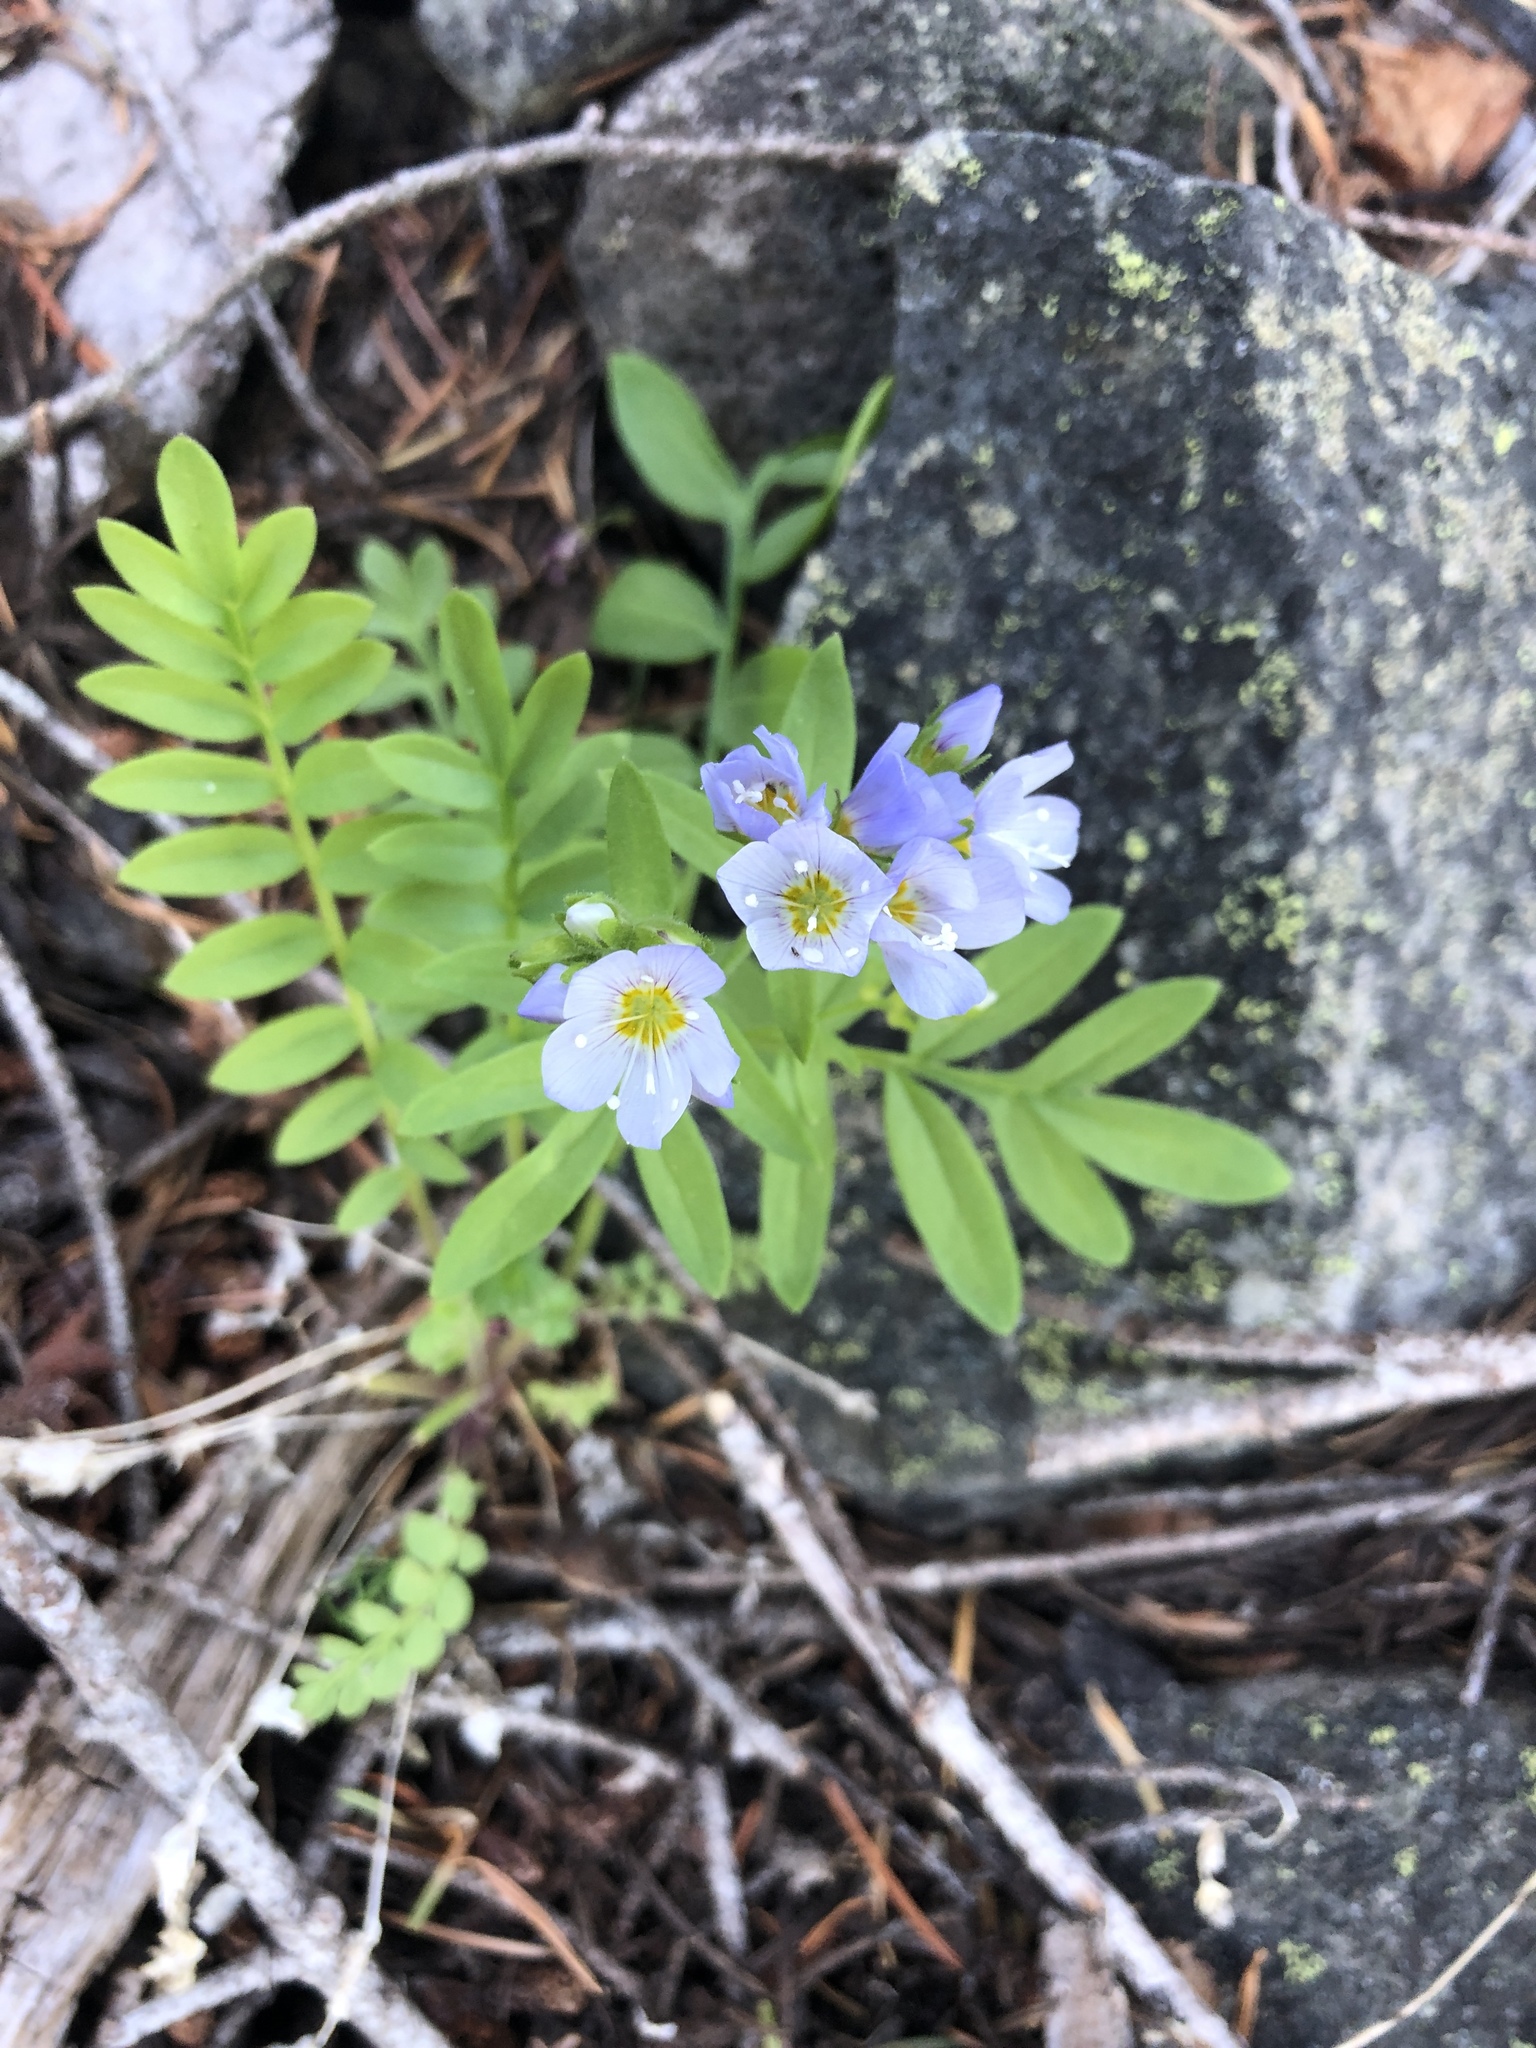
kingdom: Plantae
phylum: Tracheophyta
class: Magnoliopsida
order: Ericales
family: Polemoniaceae
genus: Polemonium
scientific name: Polemonium californicum
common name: California jacob's ladder
